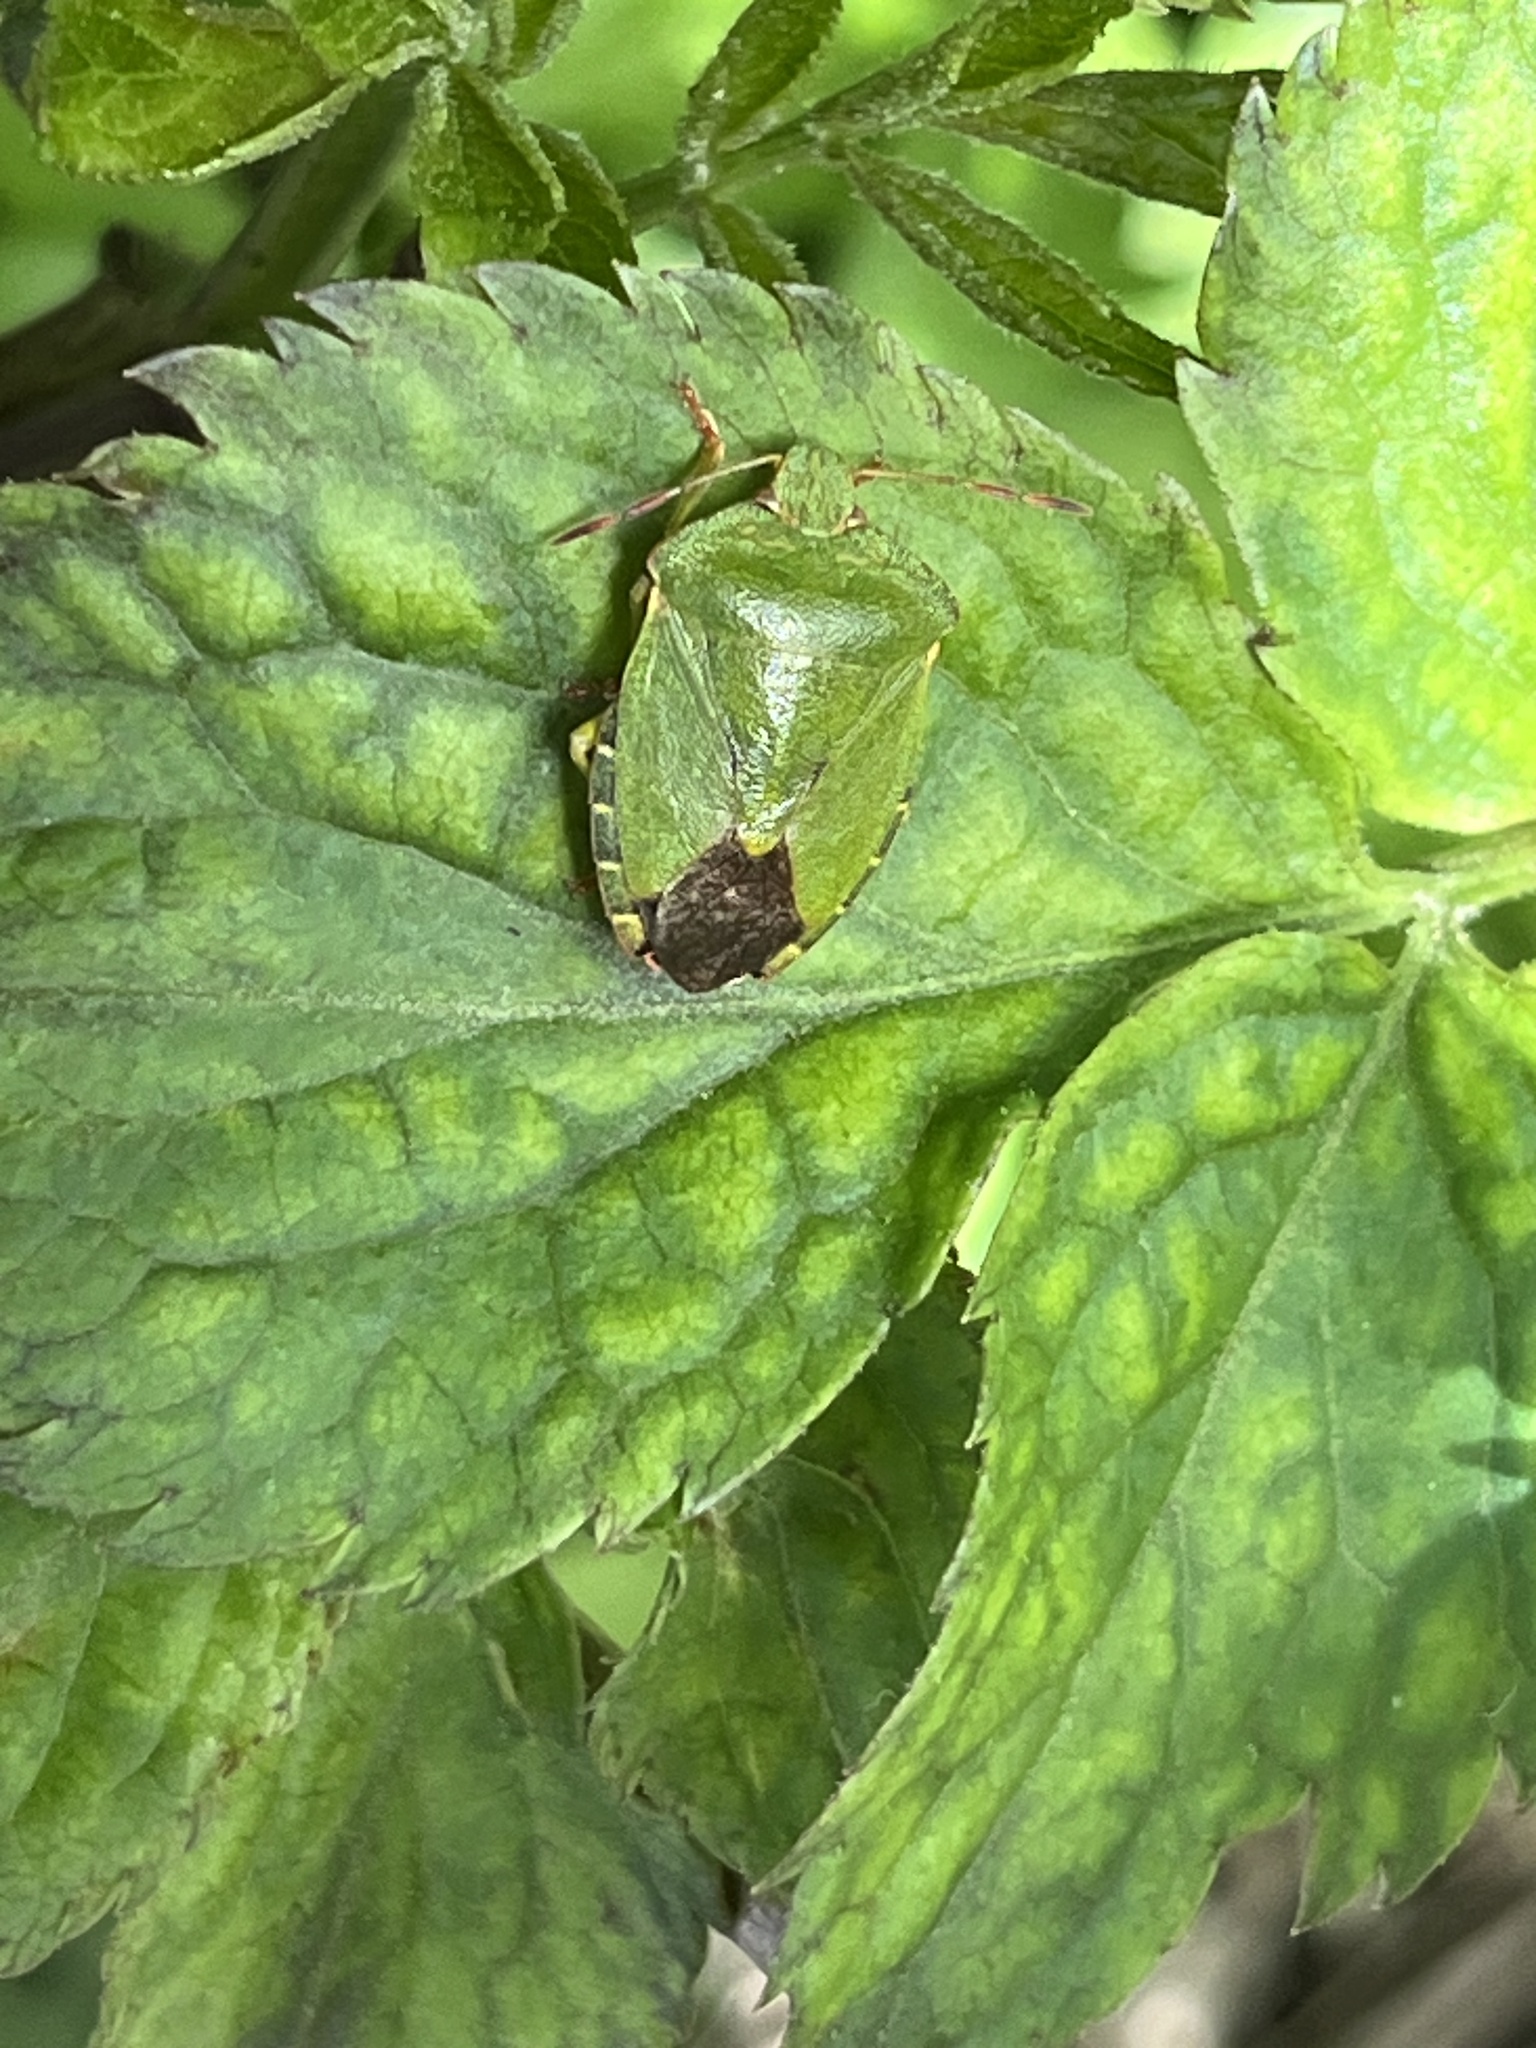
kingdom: Animalia
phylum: Arthropoda
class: Insecta
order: Hemiptera
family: Pentatomidae
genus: Palomena
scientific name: Palomena prasina
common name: Green shieldbug
